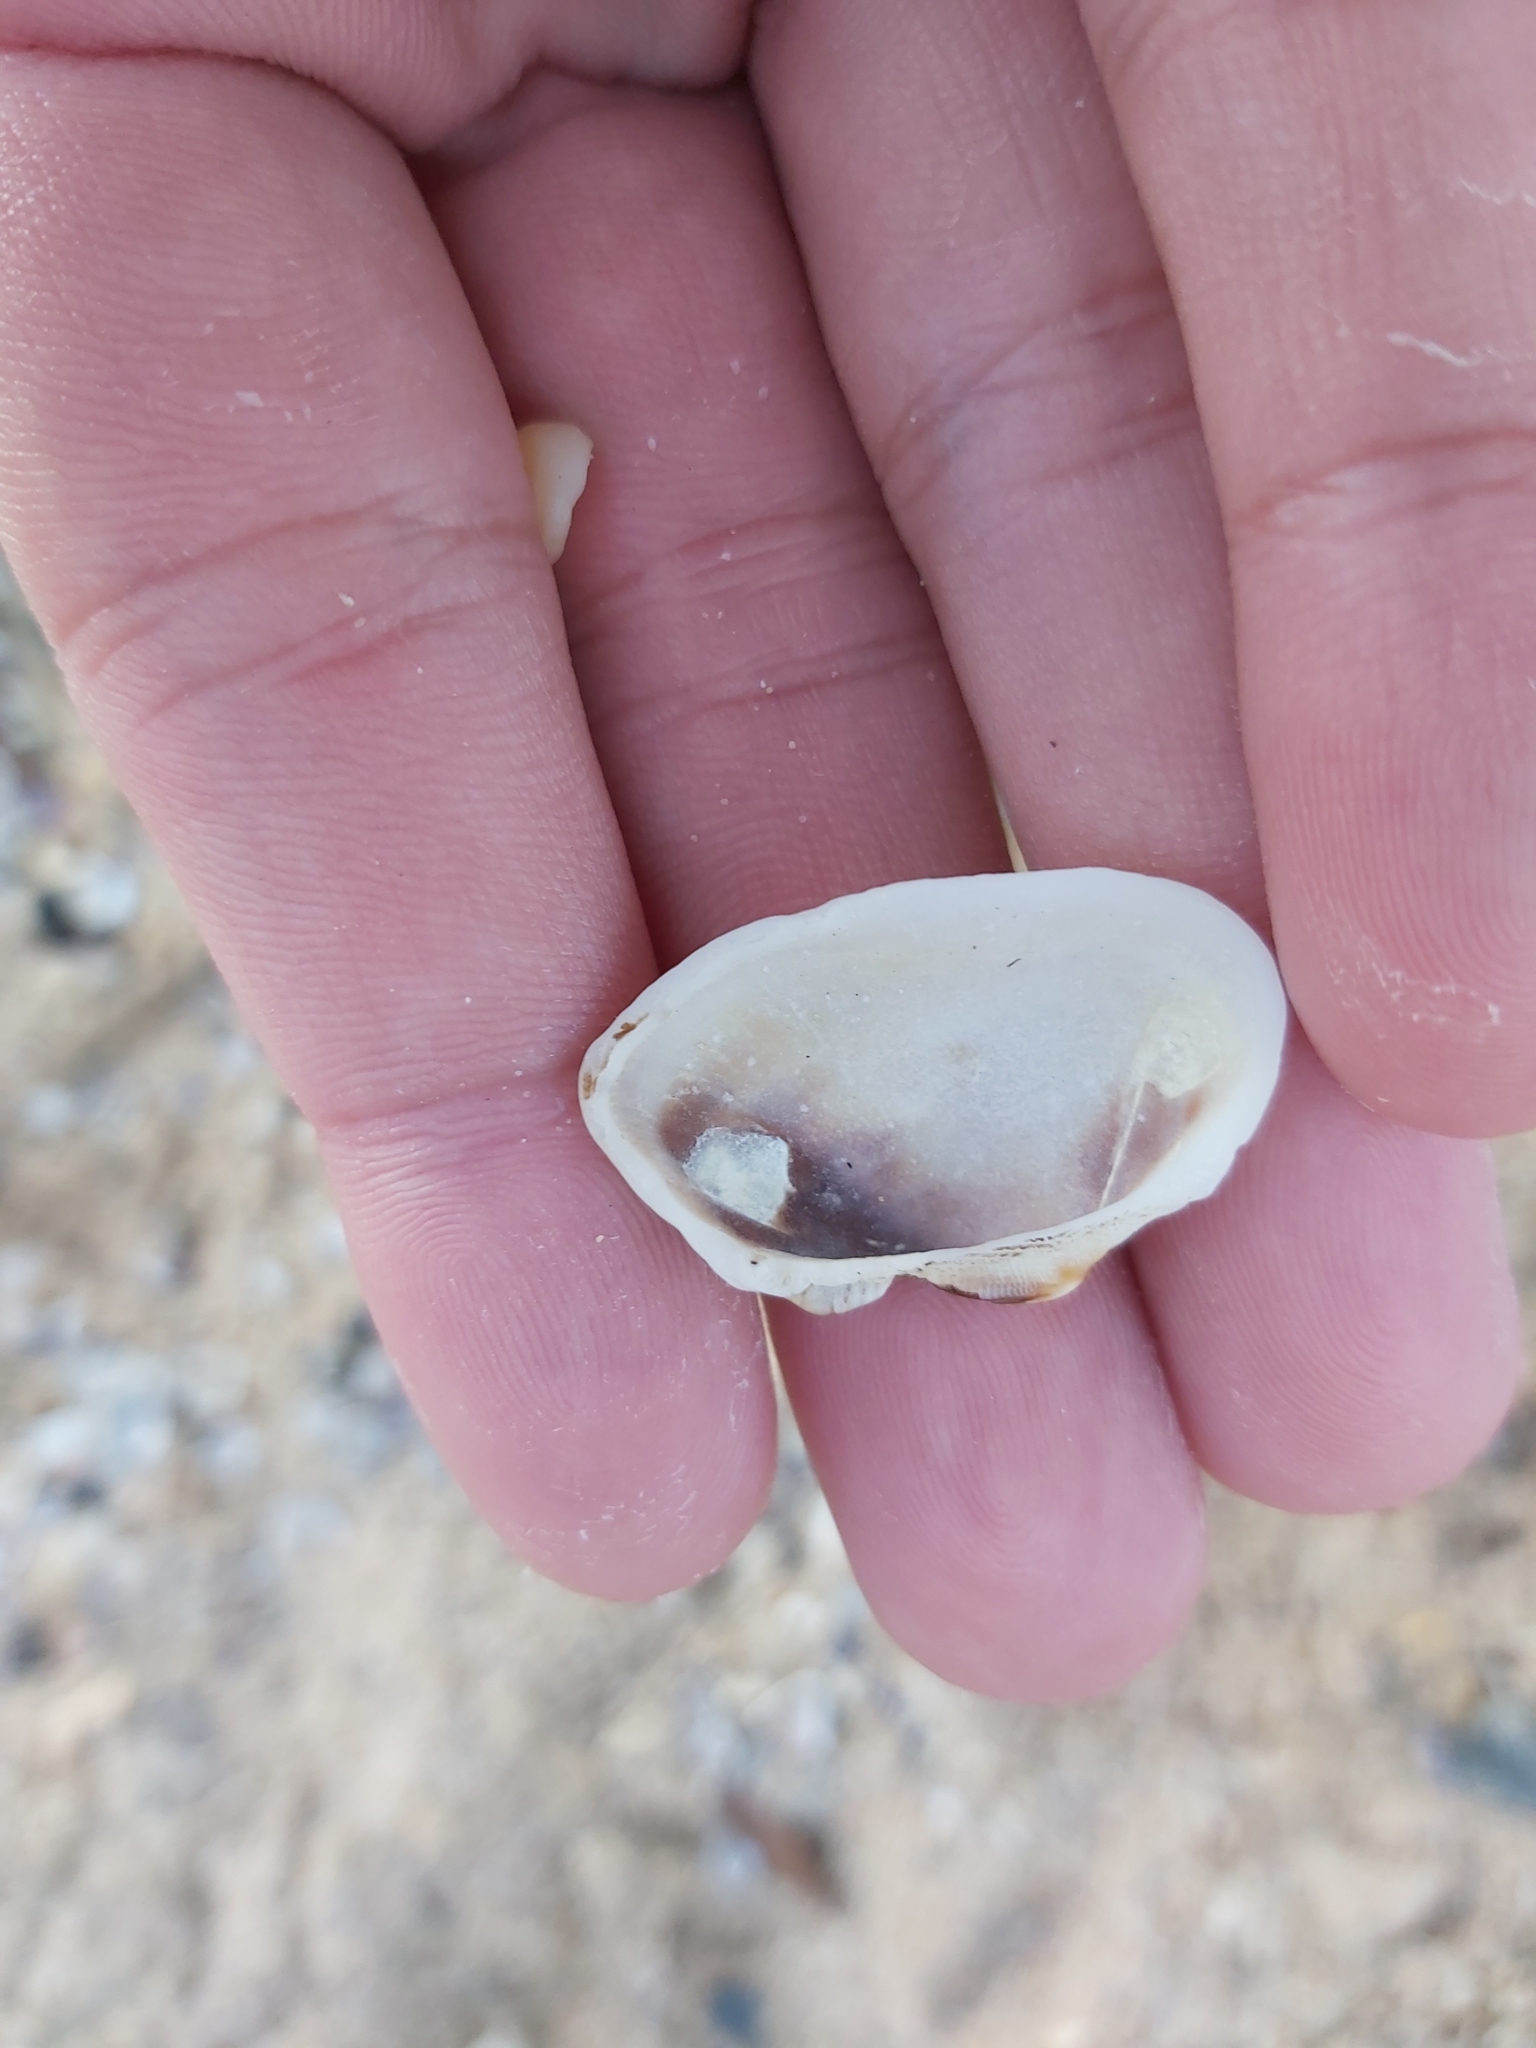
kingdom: Animalia
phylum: Mollusca
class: Bivalvia
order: Arcida
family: Arcidae
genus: Barbatia
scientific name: Barbatia pistachia
